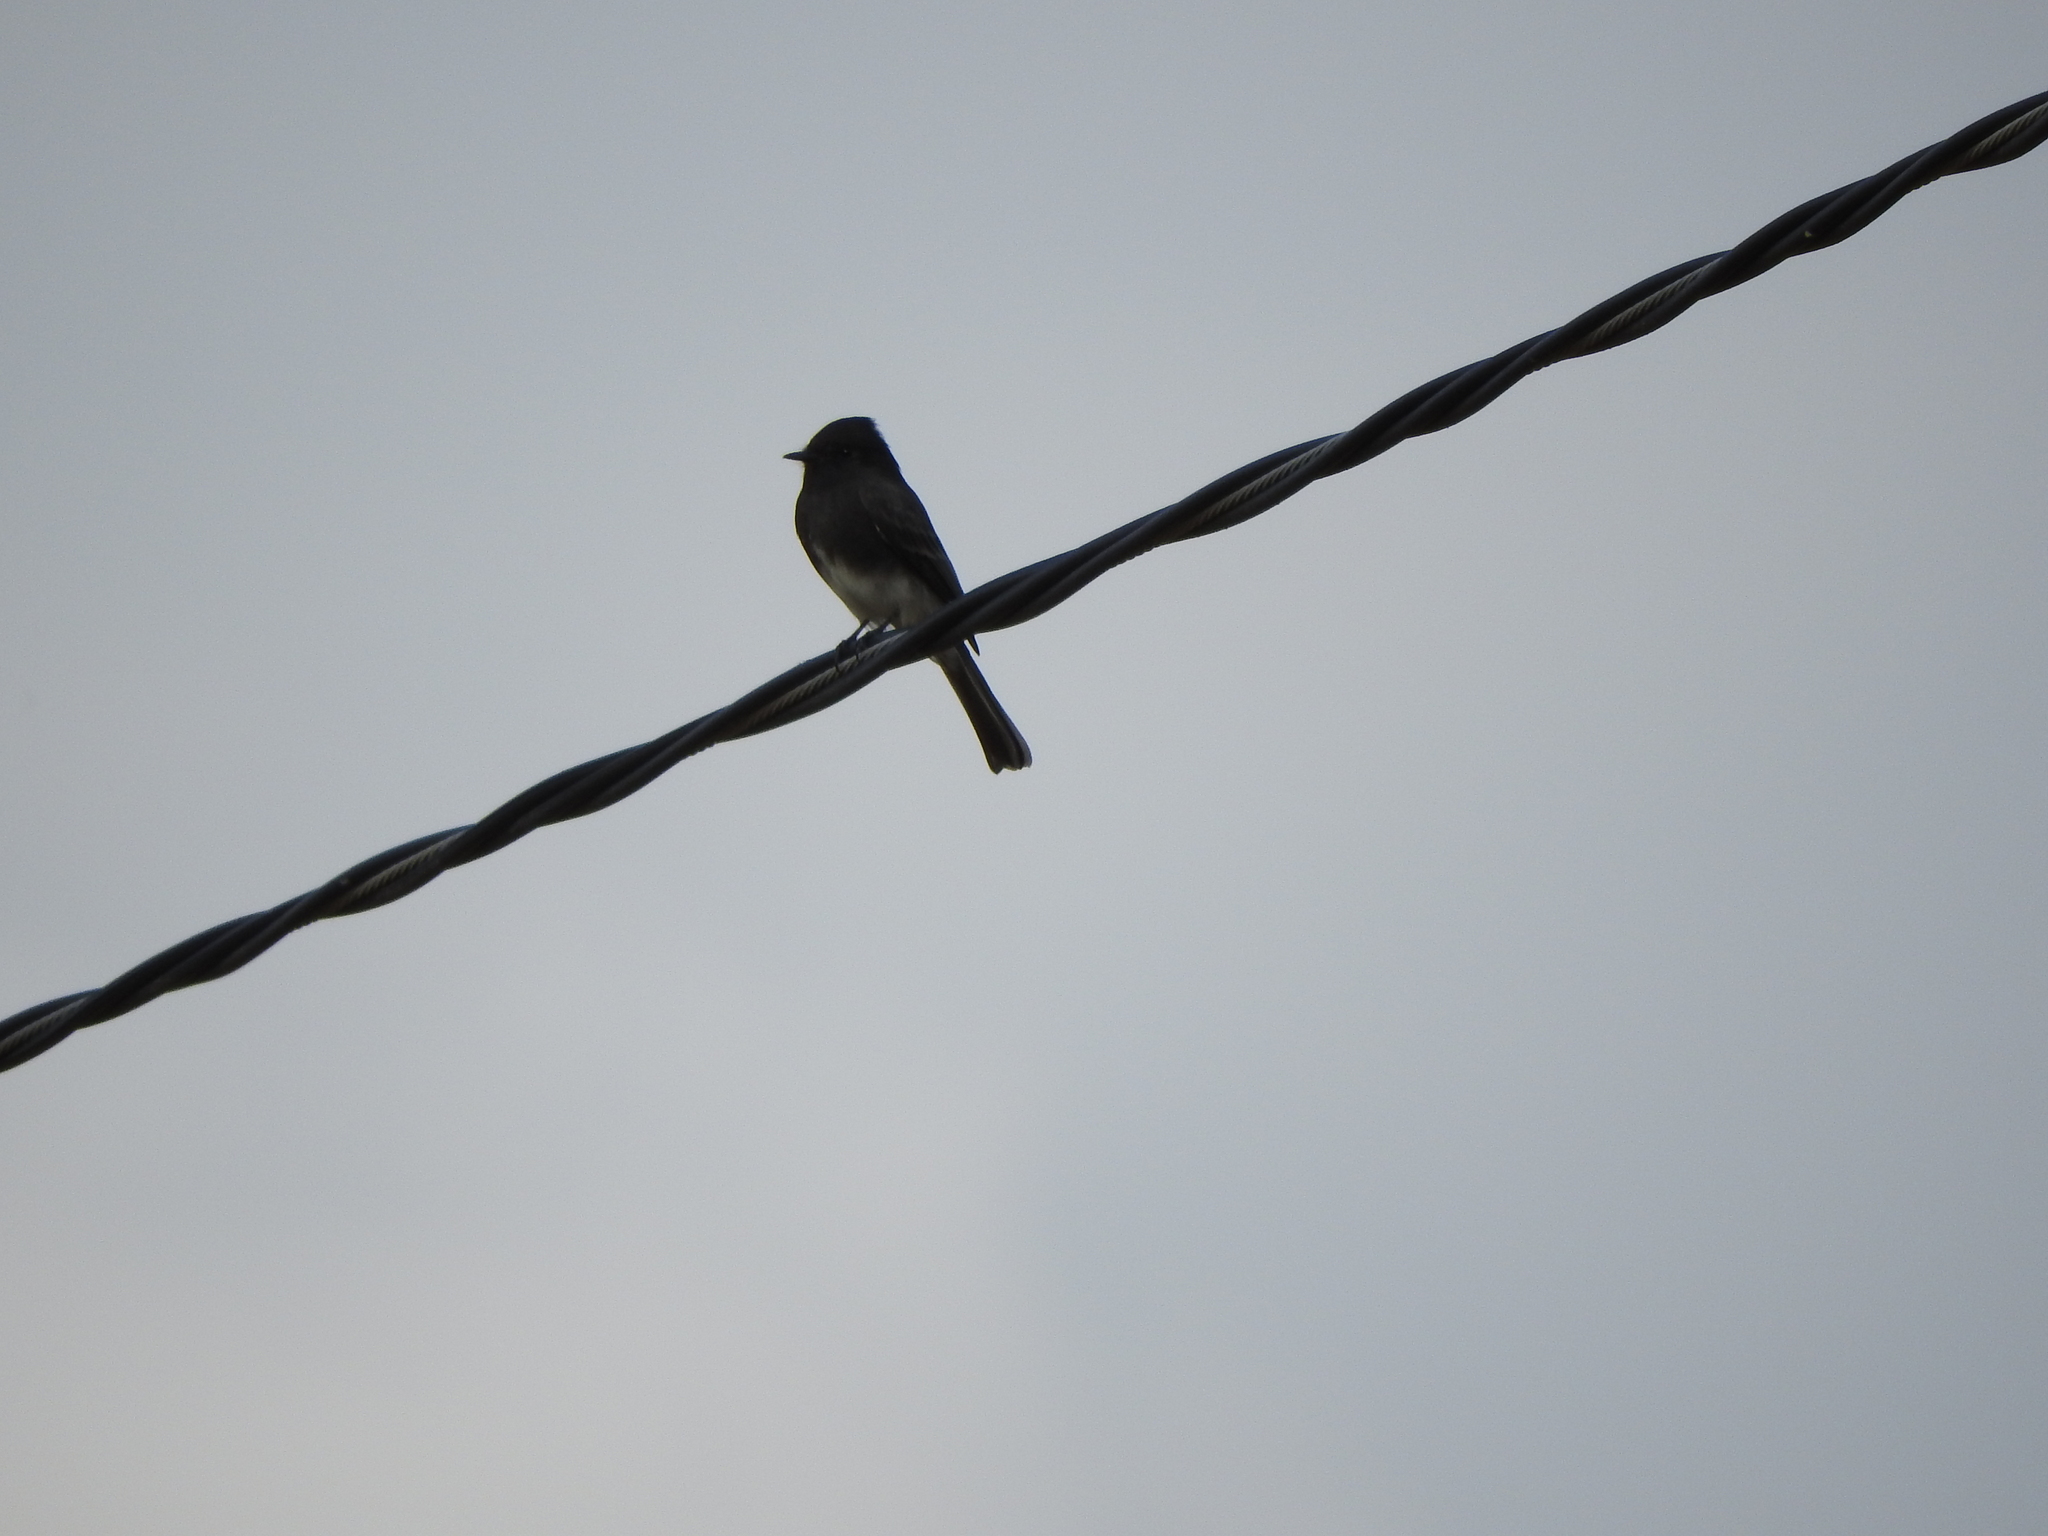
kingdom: Animalia
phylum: Chordata
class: Aves
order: Passeriformes
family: Tyrannidae
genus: Sayornis
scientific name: Sayornis nigricans
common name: Black phoebe
